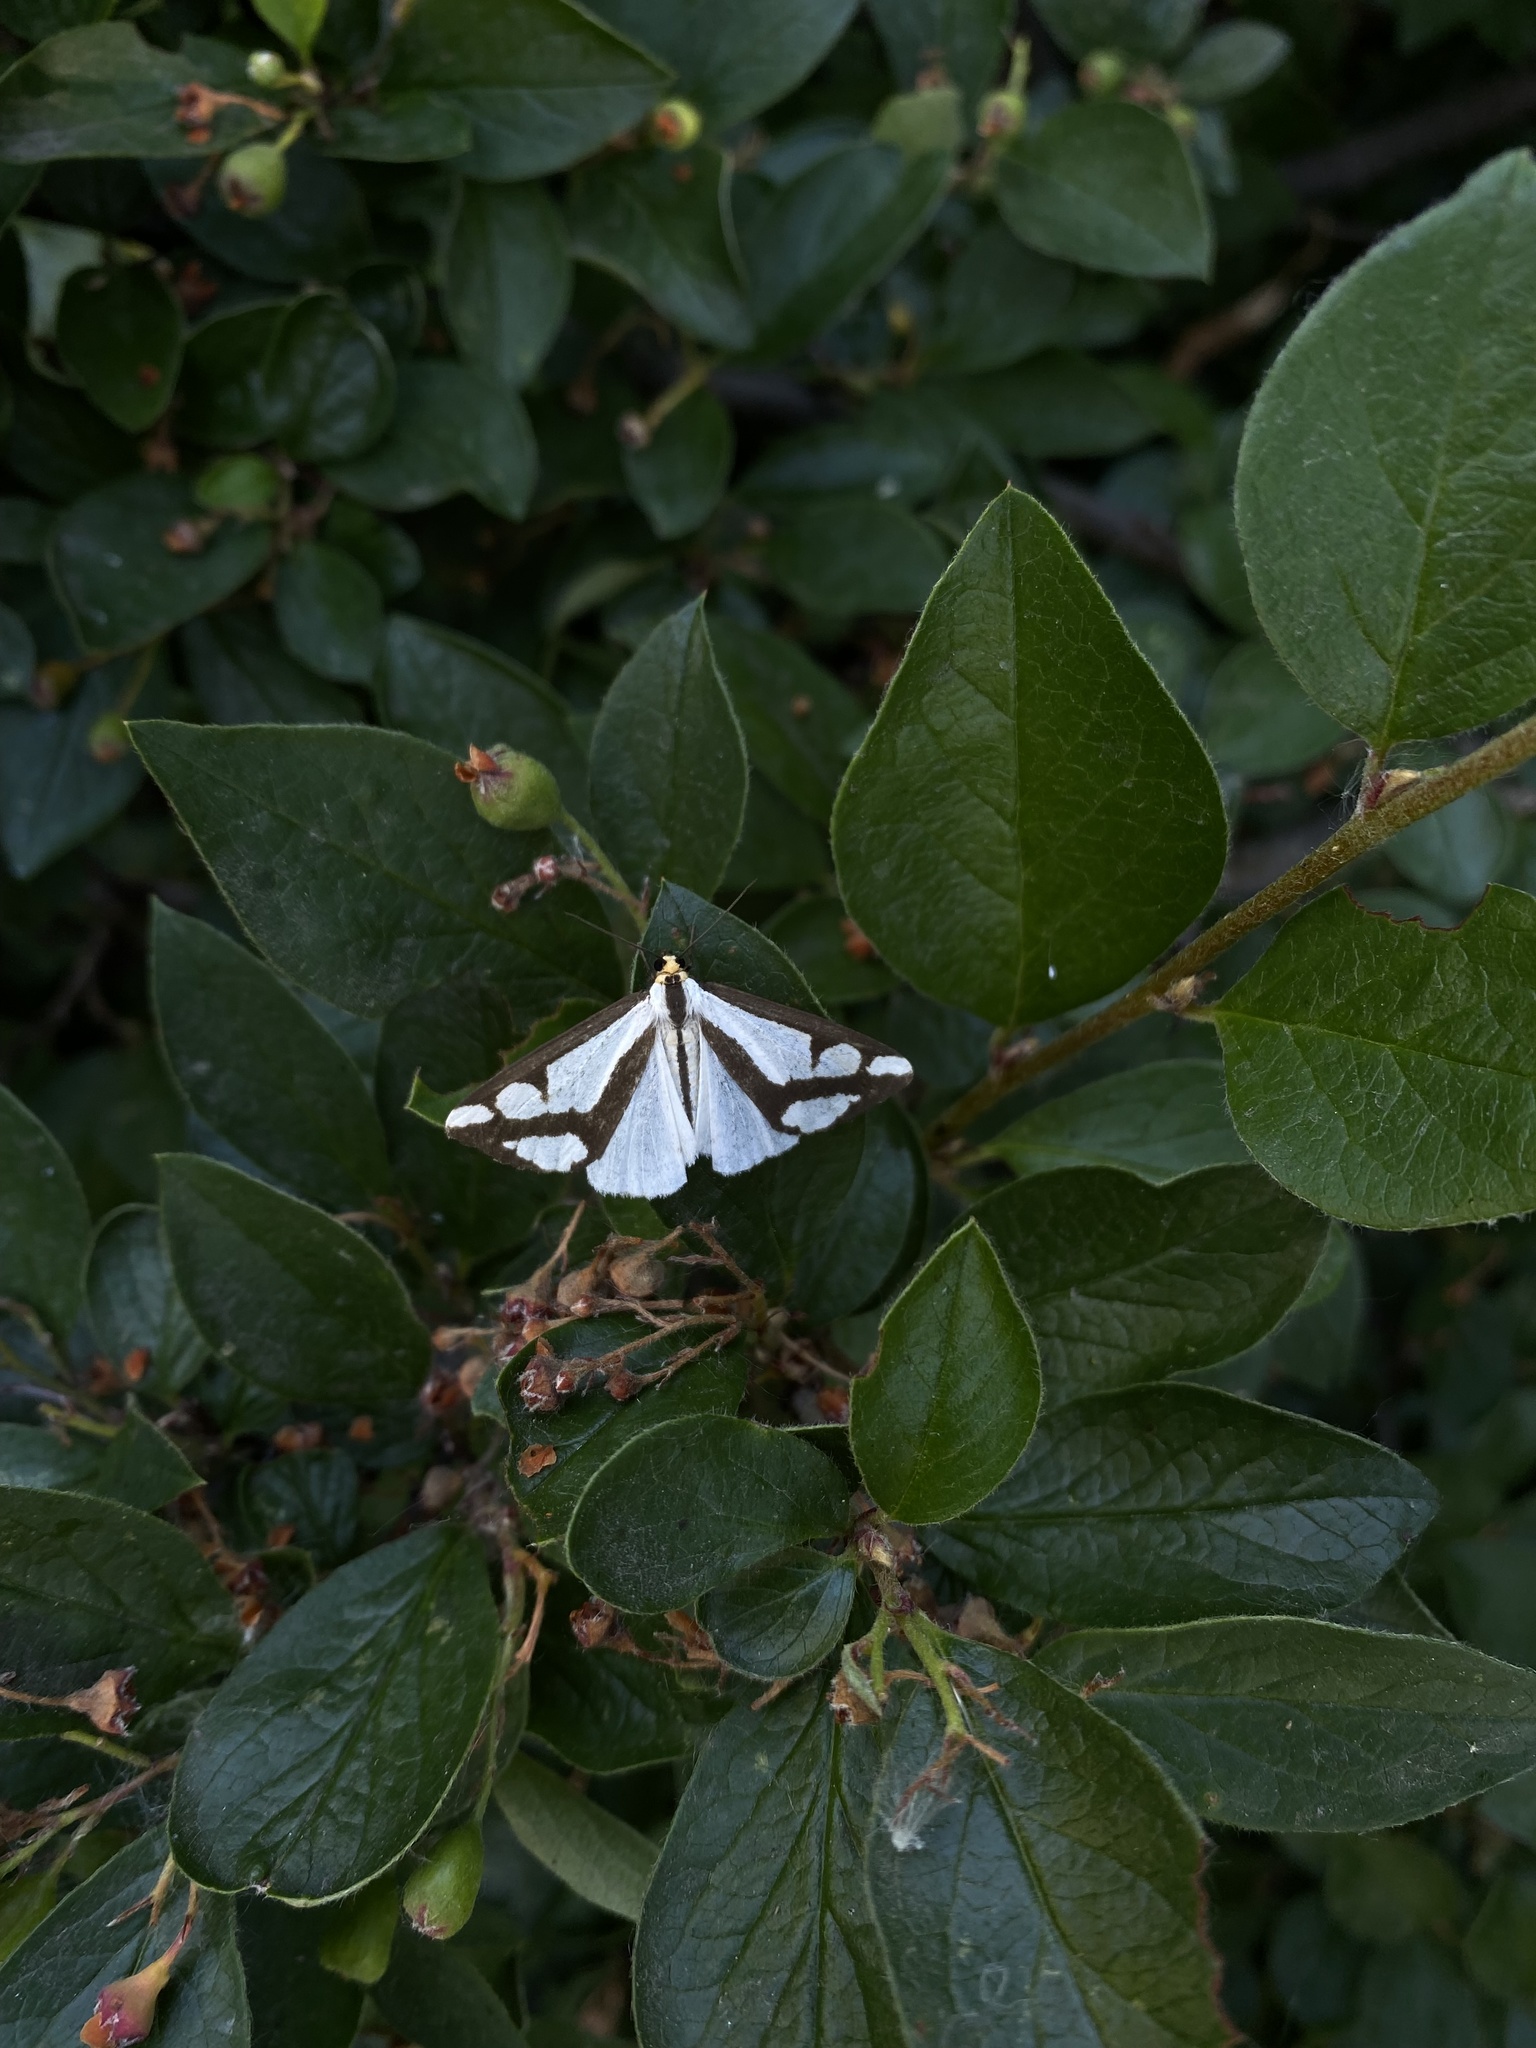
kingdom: Animalia
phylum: Arthropoda
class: Insecta
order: Lepidoptera
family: Erebidae
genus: Haploa
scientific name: Haploa lecontei
